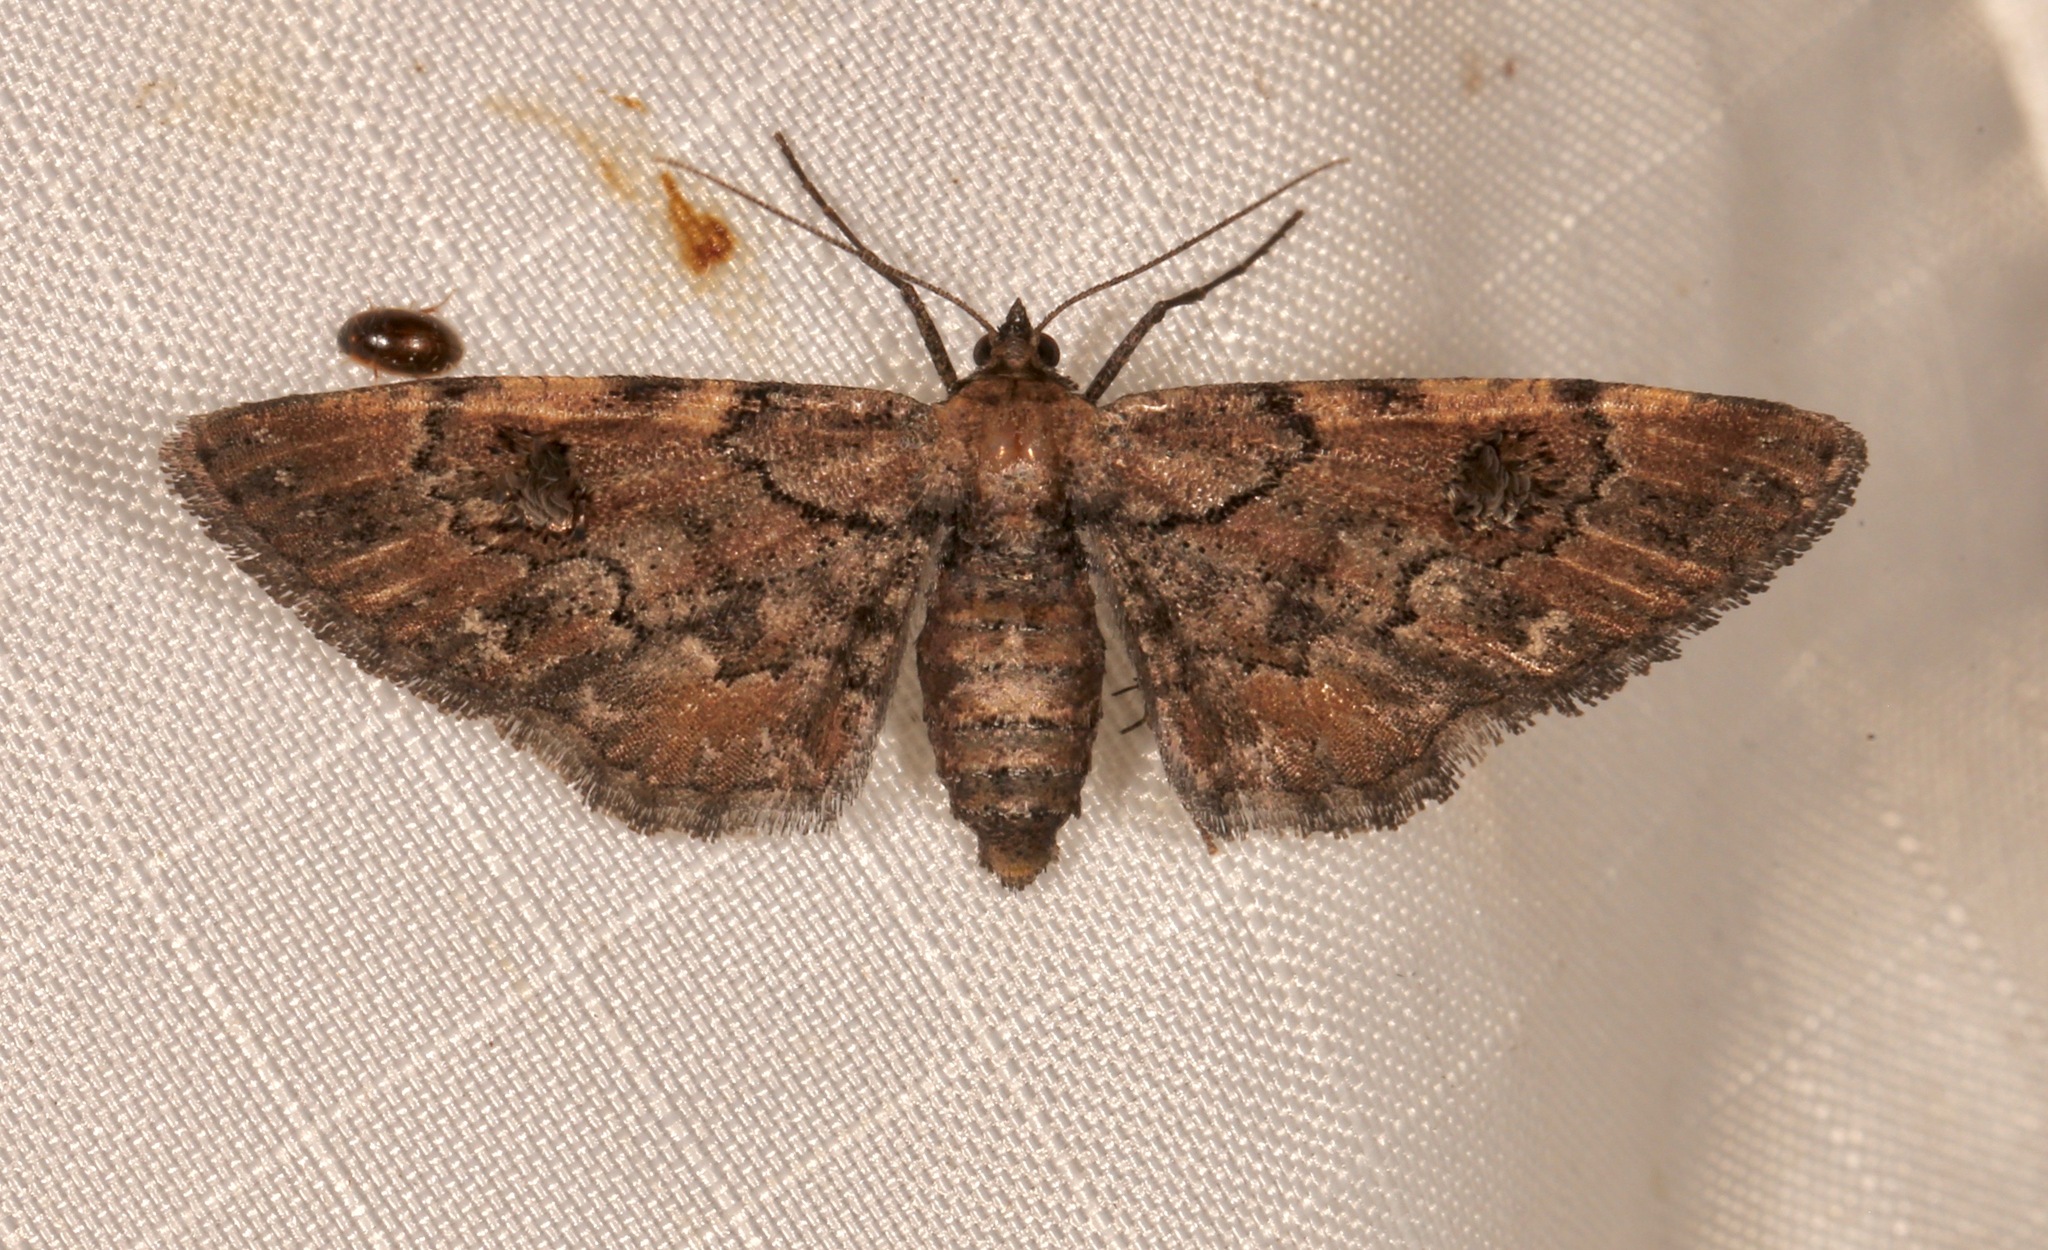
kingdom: Animalia
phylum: Arthropoda
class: Insecta
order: Lepidoptera
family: Geometridae
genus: Tornos
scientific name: Tornos cinctarius
